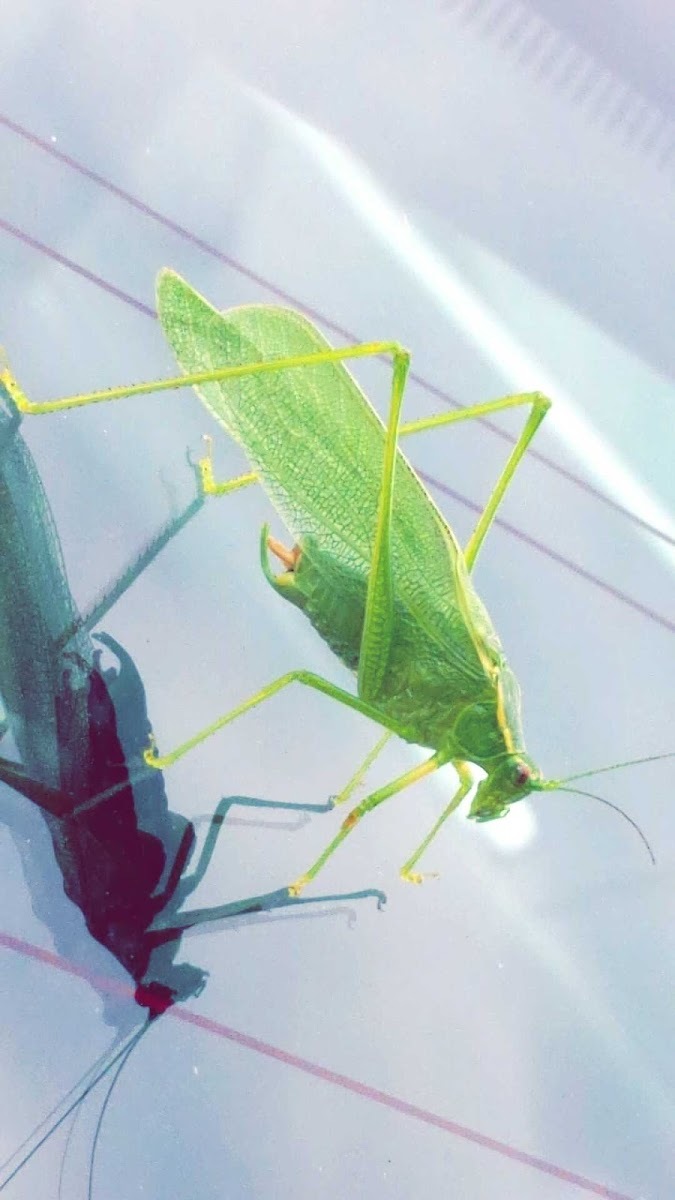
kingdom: Animalia
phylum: Arthropoda
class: Insecta
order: Orthoptera
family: Tettigoniidae
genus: Scudderia
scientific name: Scudderia septentrionalis
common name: Northern bush-katydid
